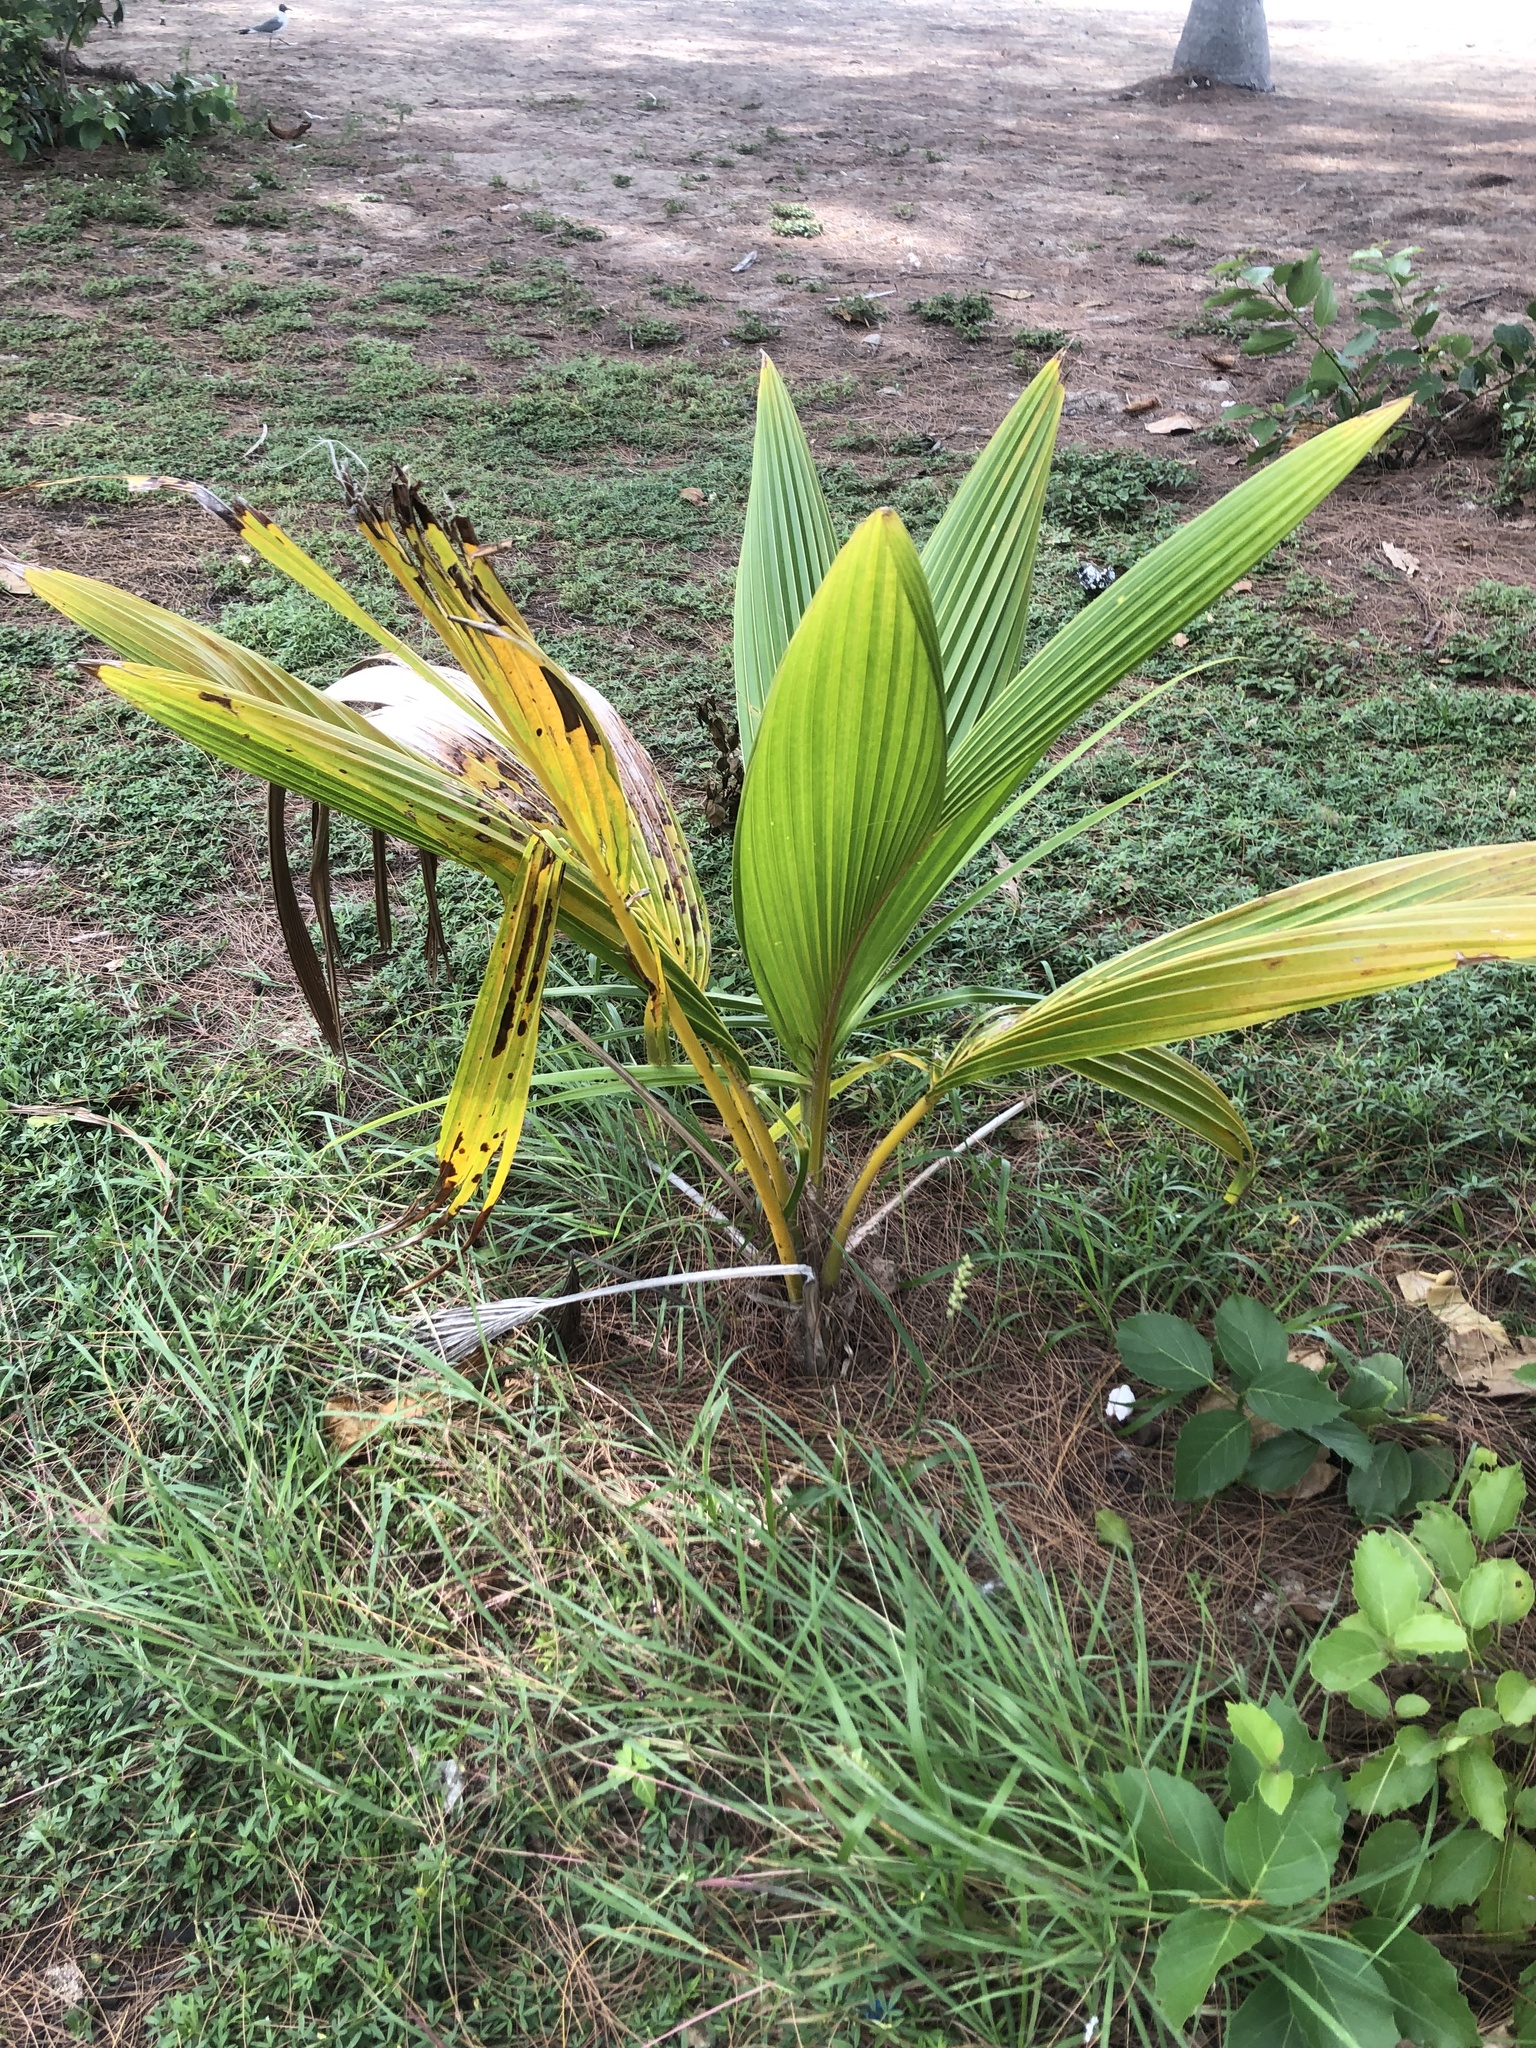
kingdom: Plantae
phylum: Tracheophyta
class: Liliopsida
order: Arecales
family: Arecaceae
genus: Cocos
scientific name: Cocos nucifera
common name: Coconut palm
